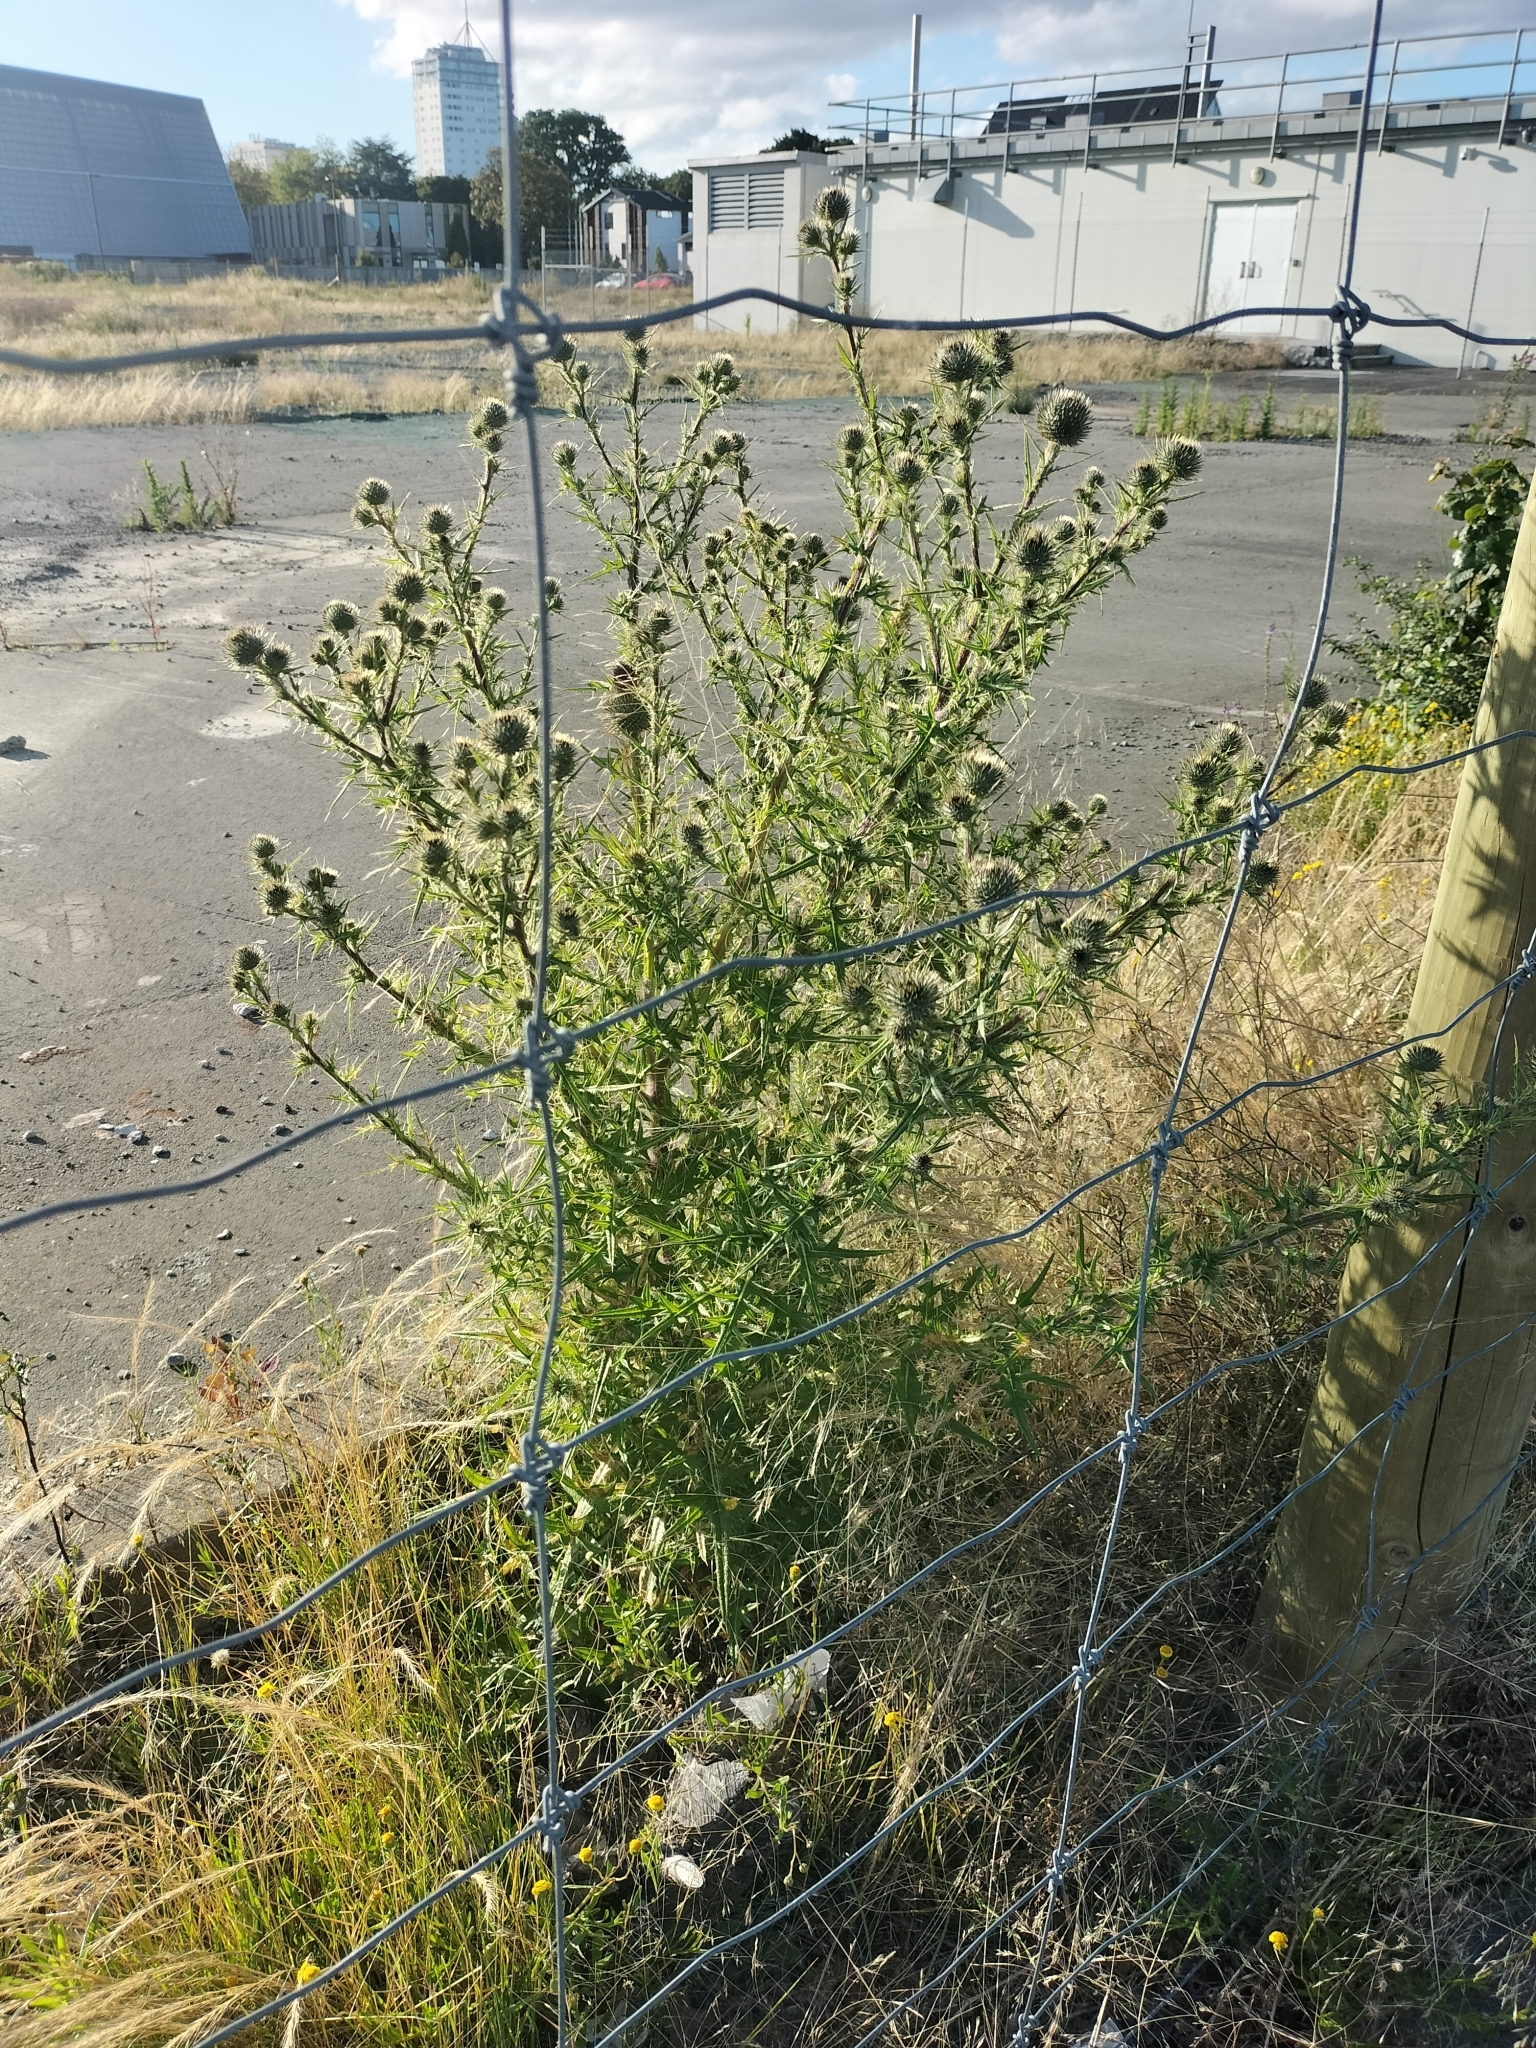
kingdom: Plantae
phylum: Tracheophyta
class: Magnoliopsida
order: Asterales
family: Asteraceae
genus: Cirsium
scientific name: Cirsium vulgare
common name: Bull thistle
